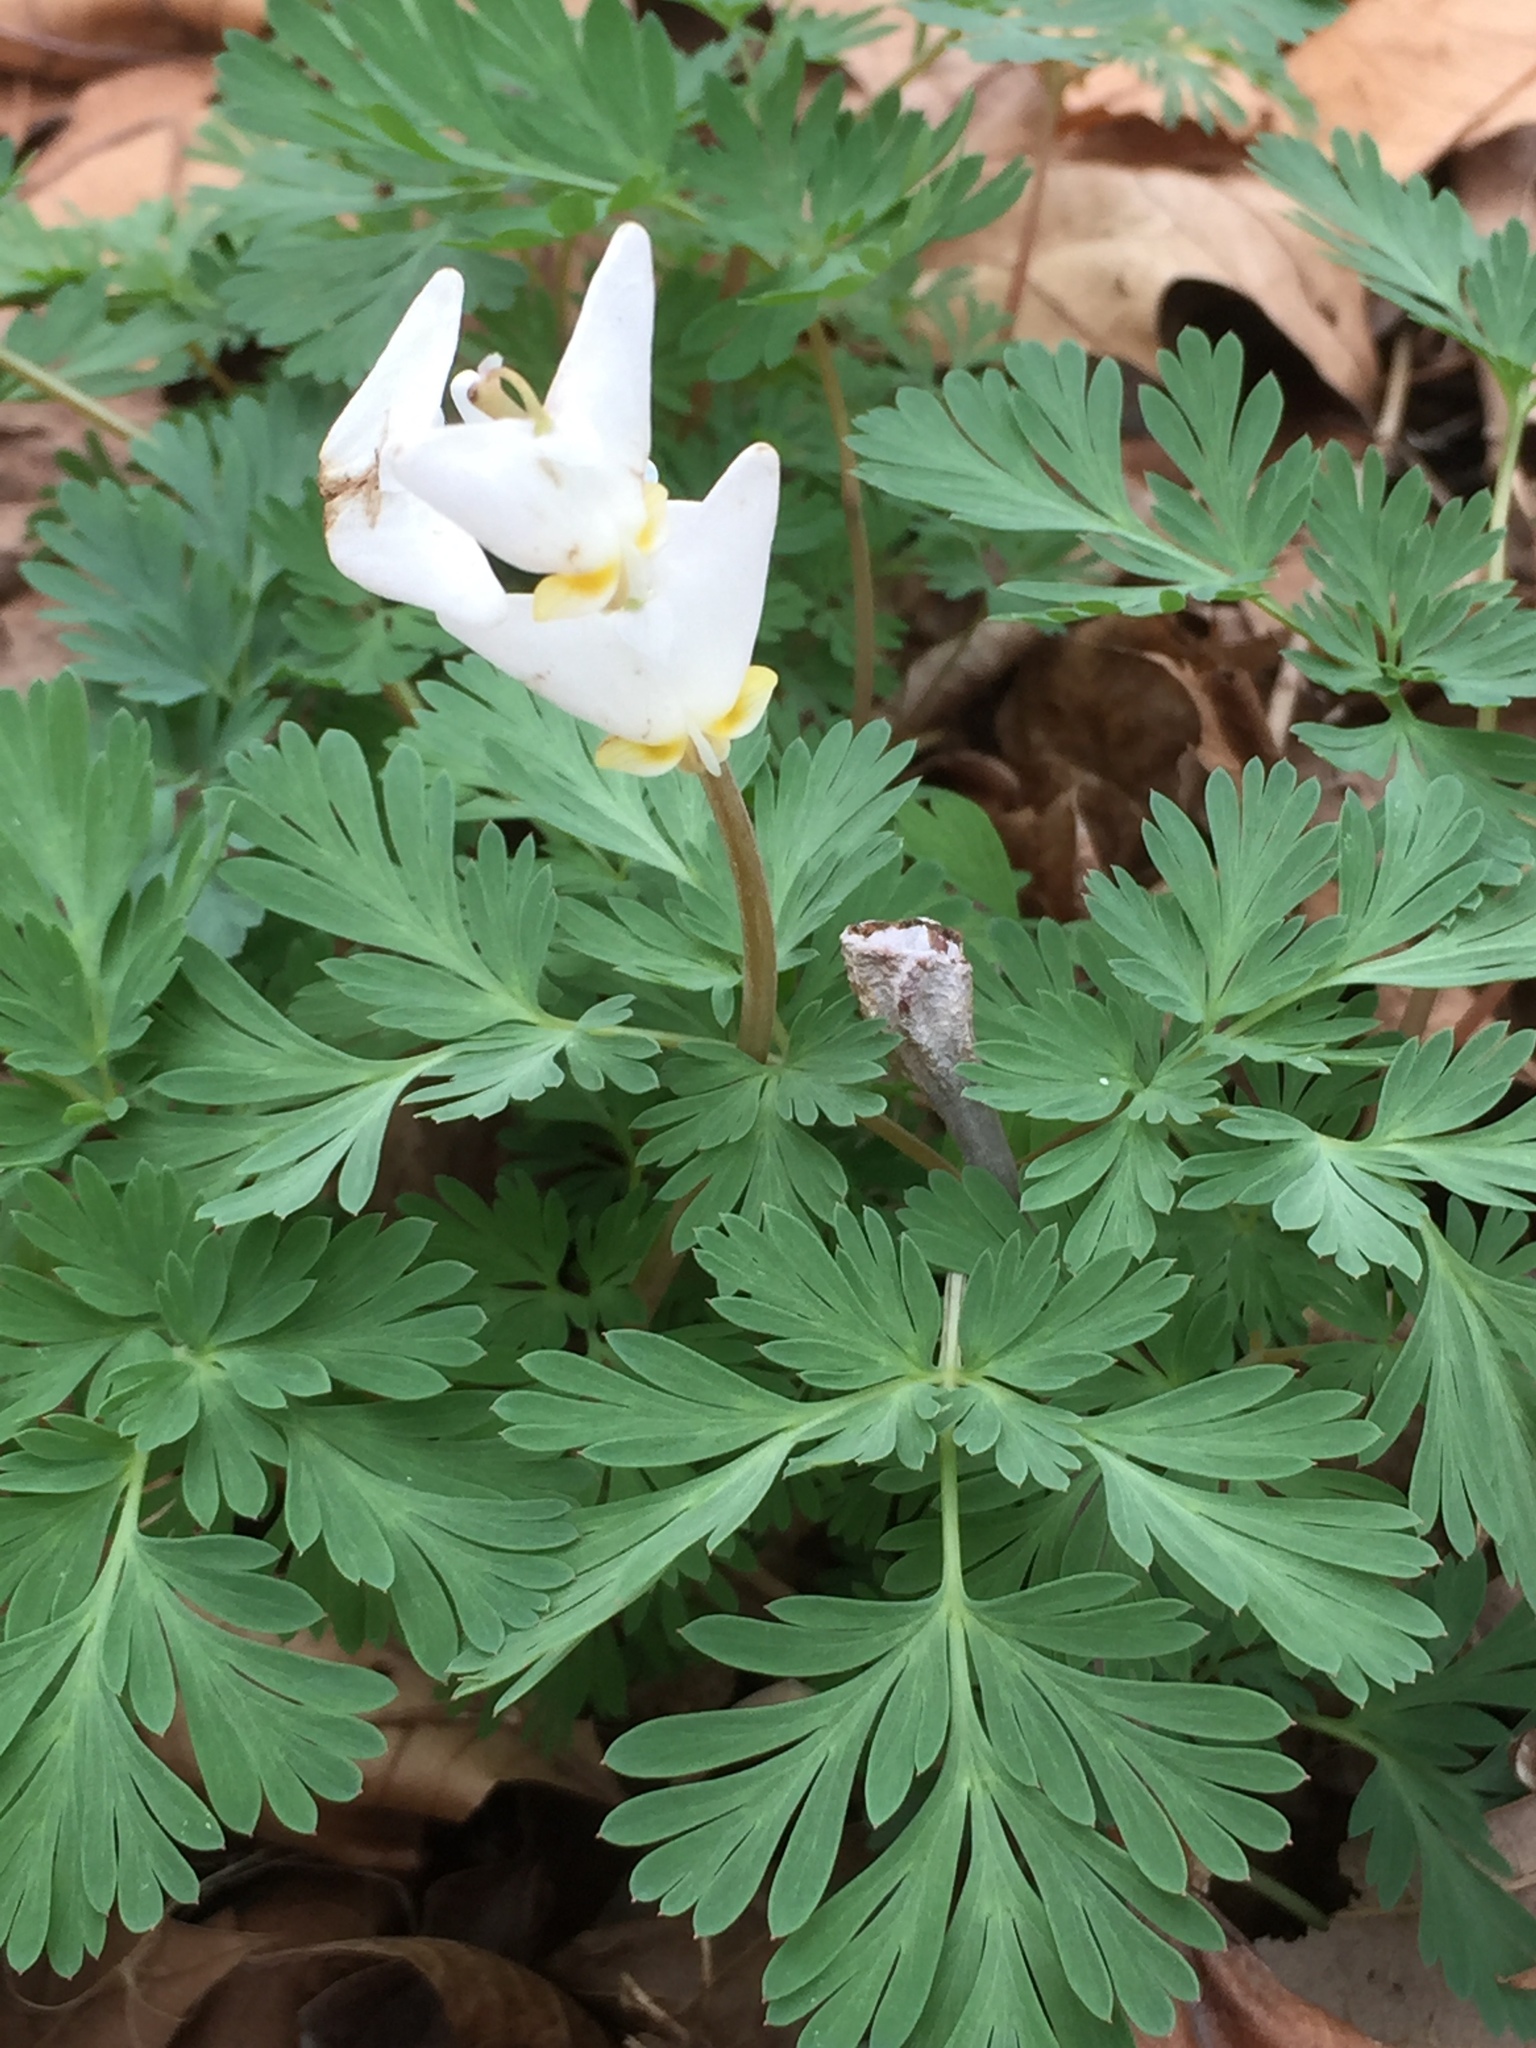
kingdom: Plantae
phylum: Tracheophyta
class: Magnoliopsida
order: Ranunculales
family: Papaveraceae
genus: Dicentra
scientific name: Dicentra cucullaria
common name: Dutchman's breeches
